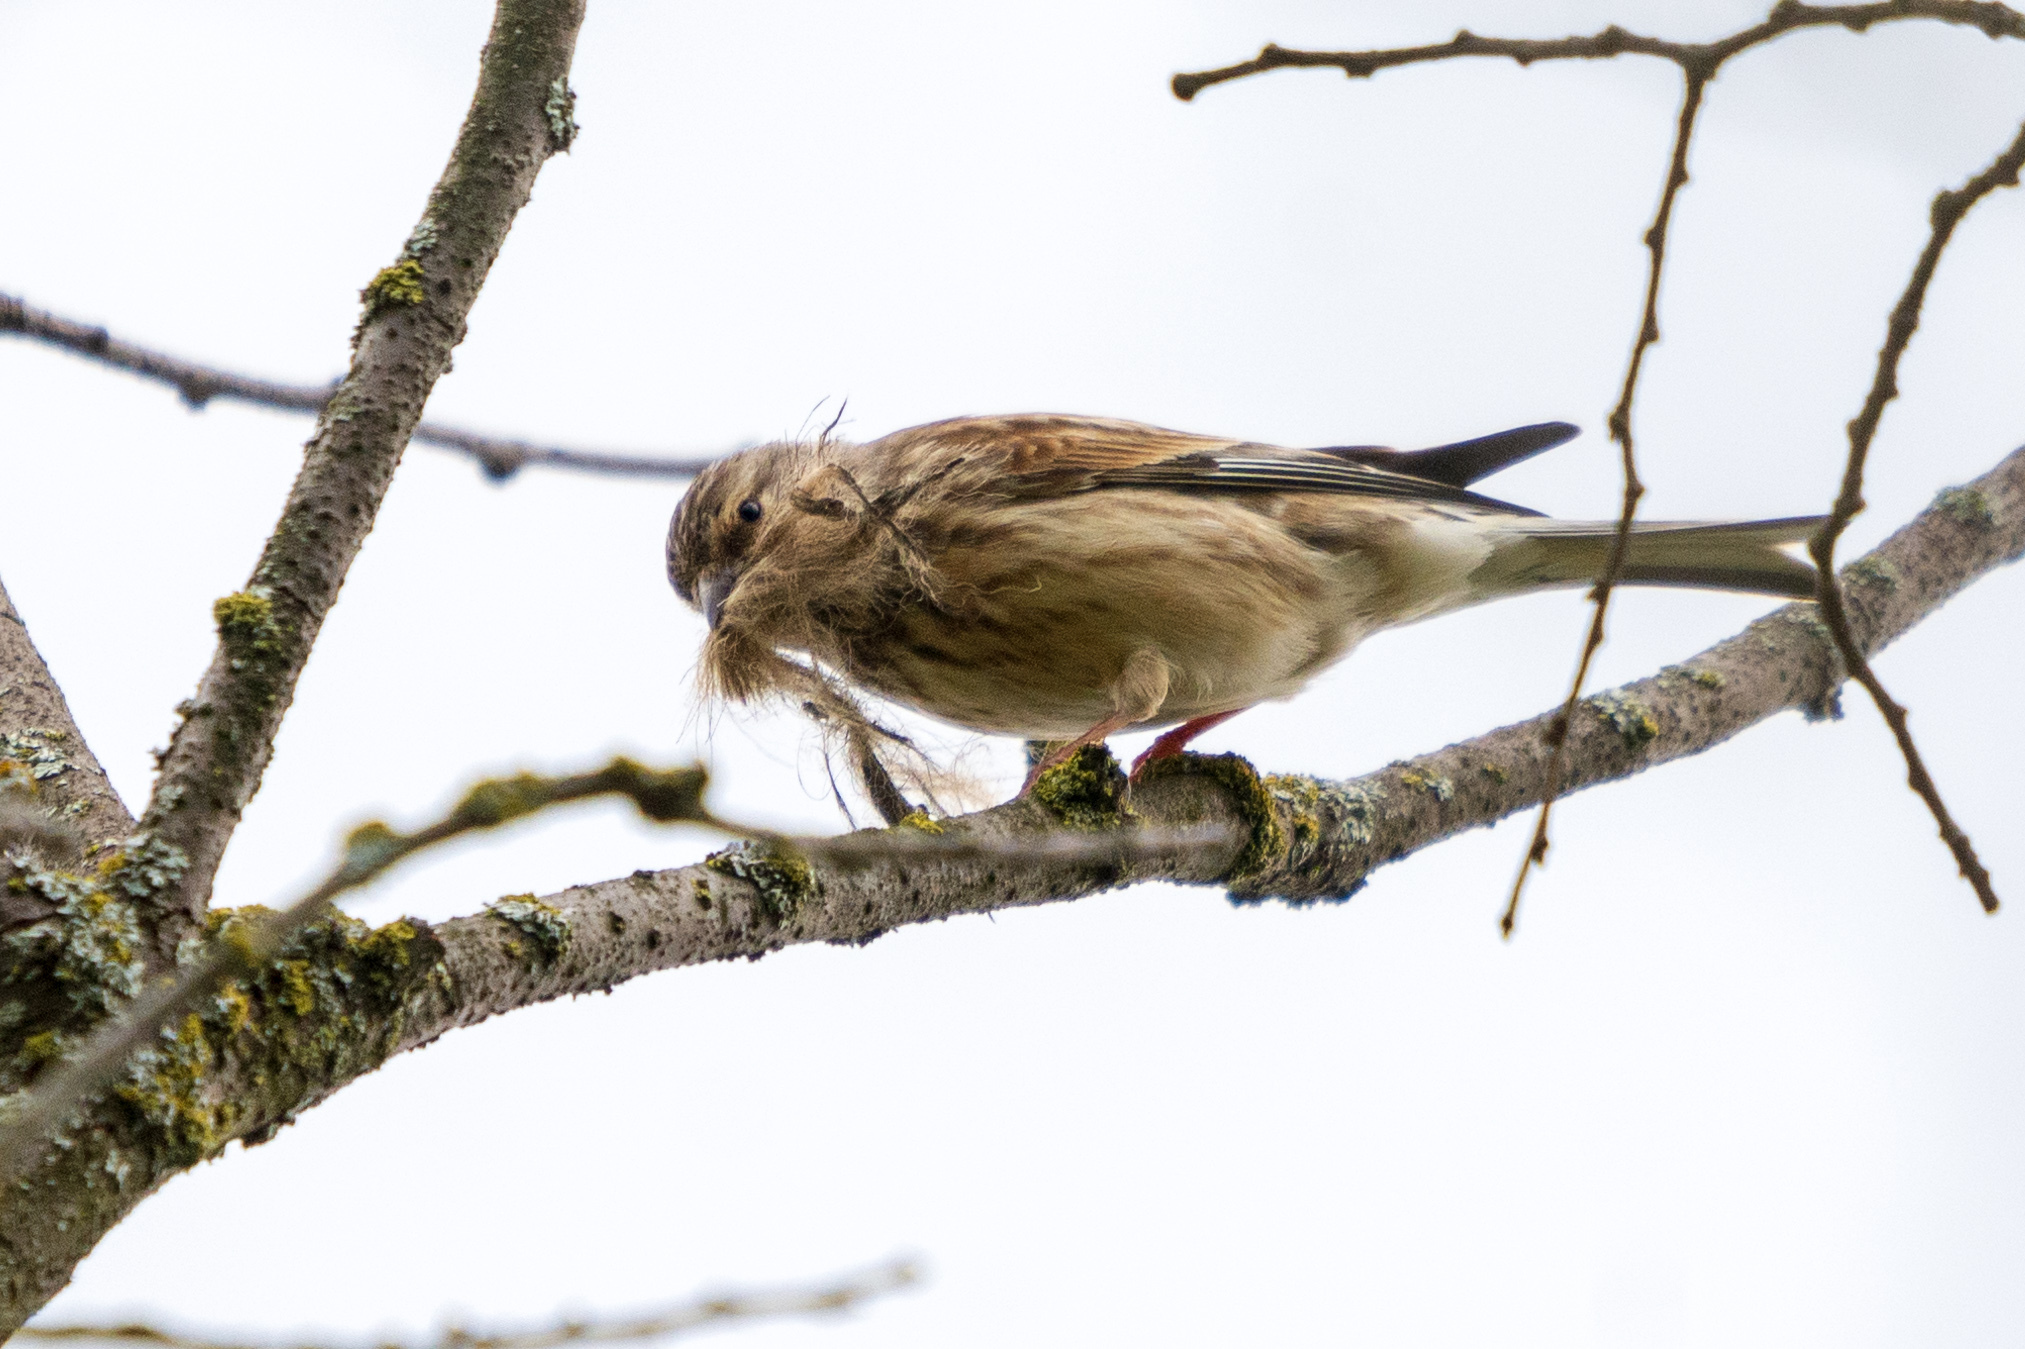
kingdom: Animalia
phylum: Chordata
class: Aves
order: Passeriformes
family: Fringillidae
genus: Linaria
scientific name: Linaria cannabina
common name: Common linnet
